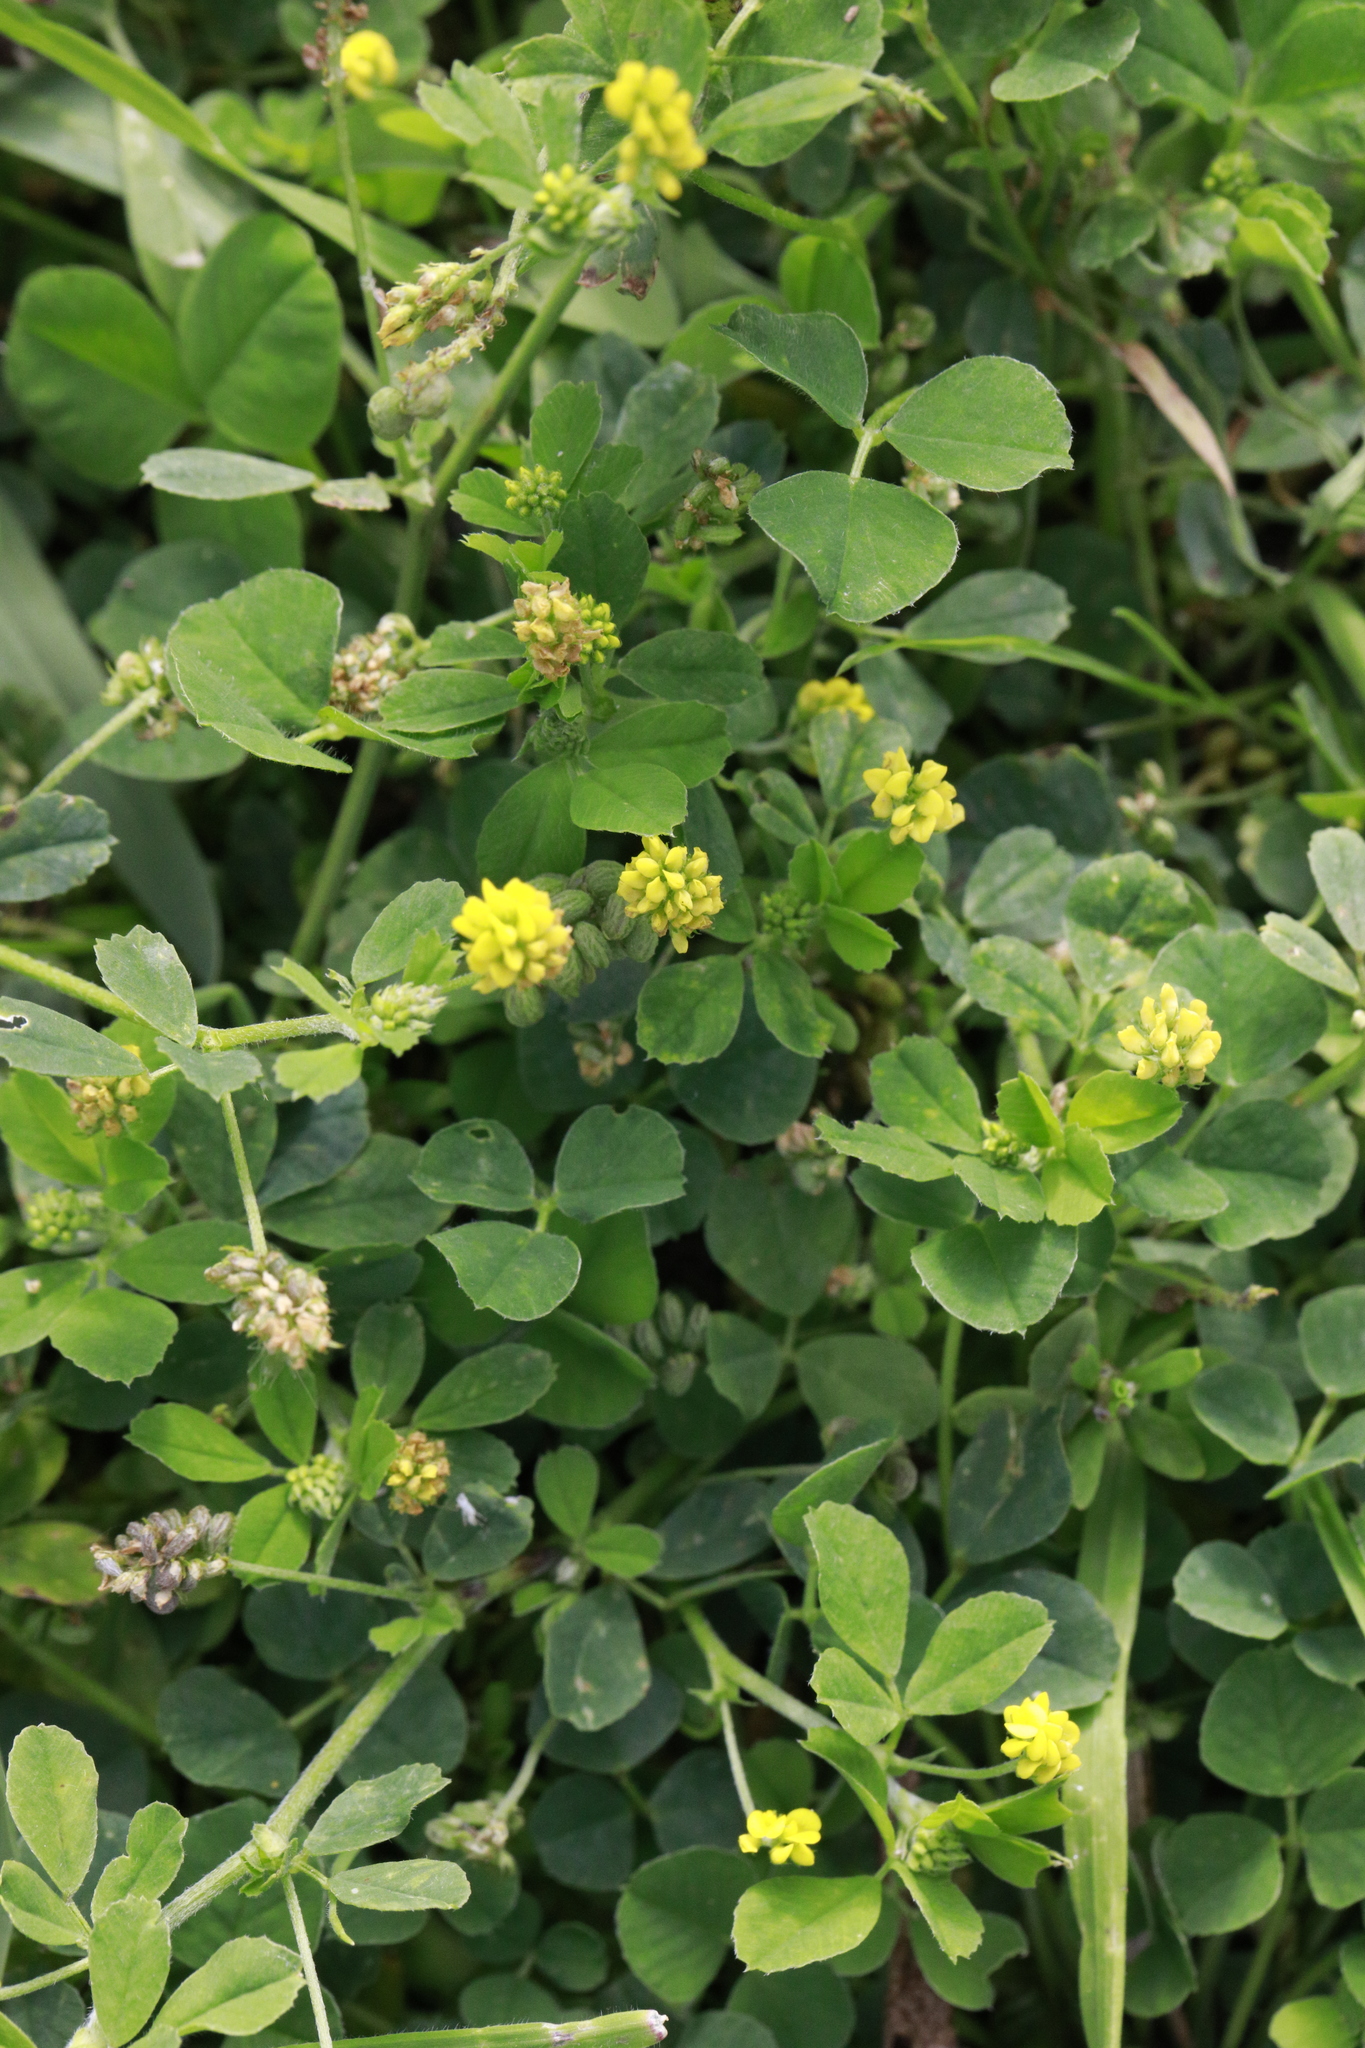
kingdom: Plantae
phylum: Tracheophyta
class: Magnoliopsida
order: Fabales
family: Fabaceae
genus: Medicago
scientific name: Medicago lupulina
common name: Black medick
